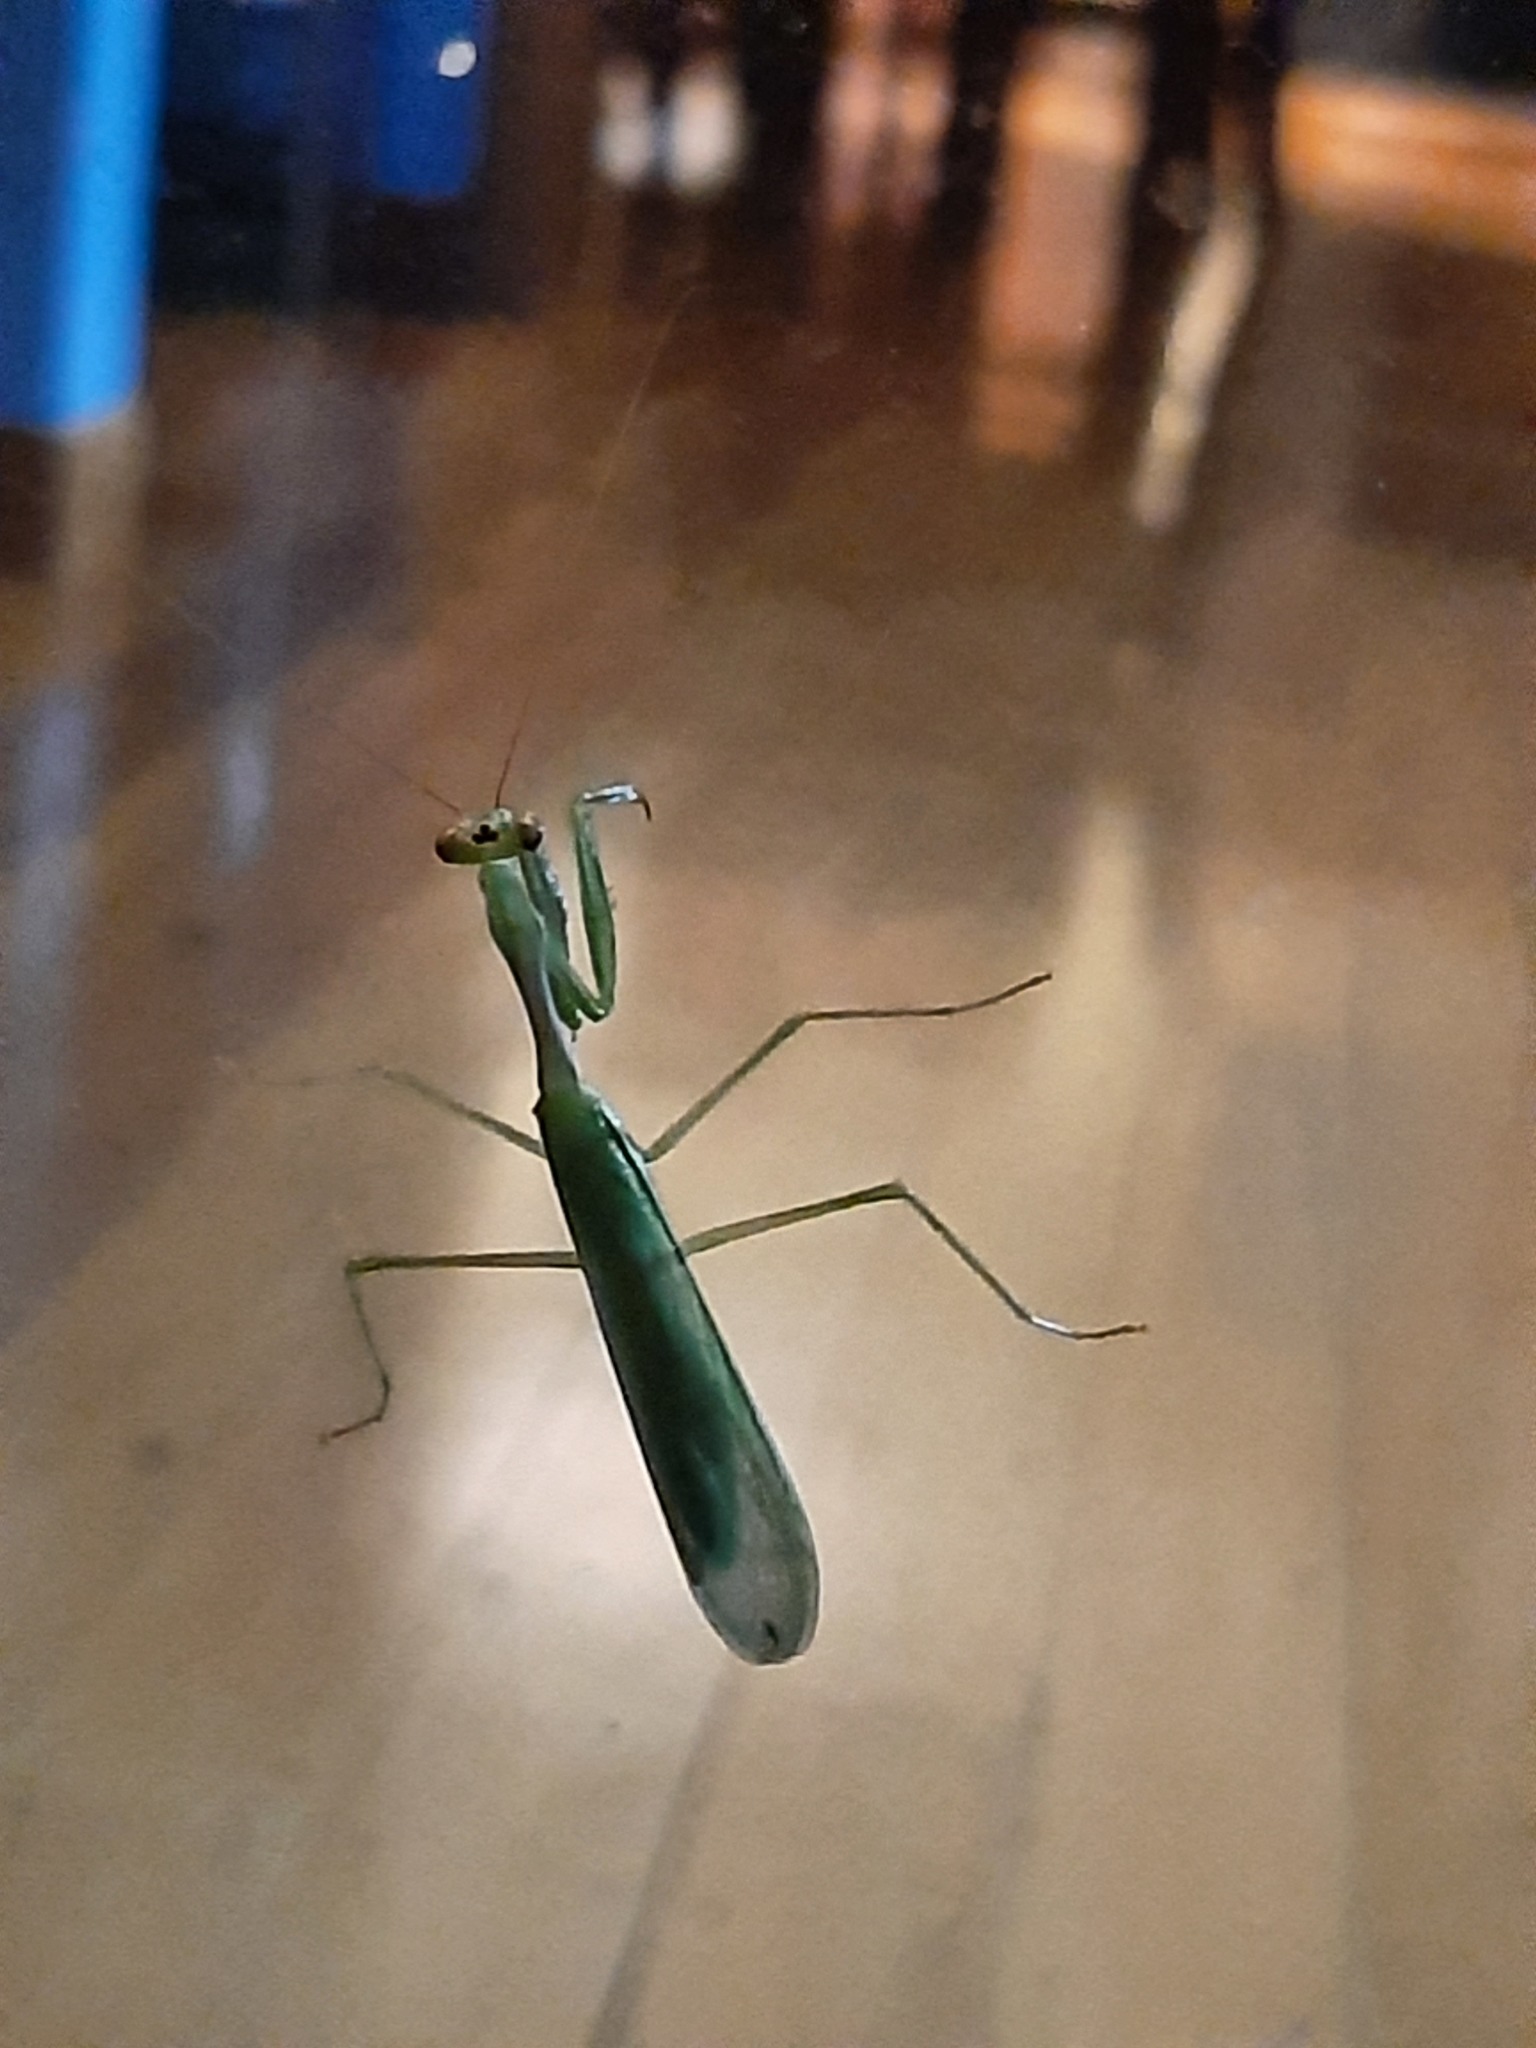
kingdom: Animalia
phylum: Arthropoda
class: Insecta
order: Mantodea
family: Miomantidae
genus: Miomantis
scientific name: Miomantis caffra
